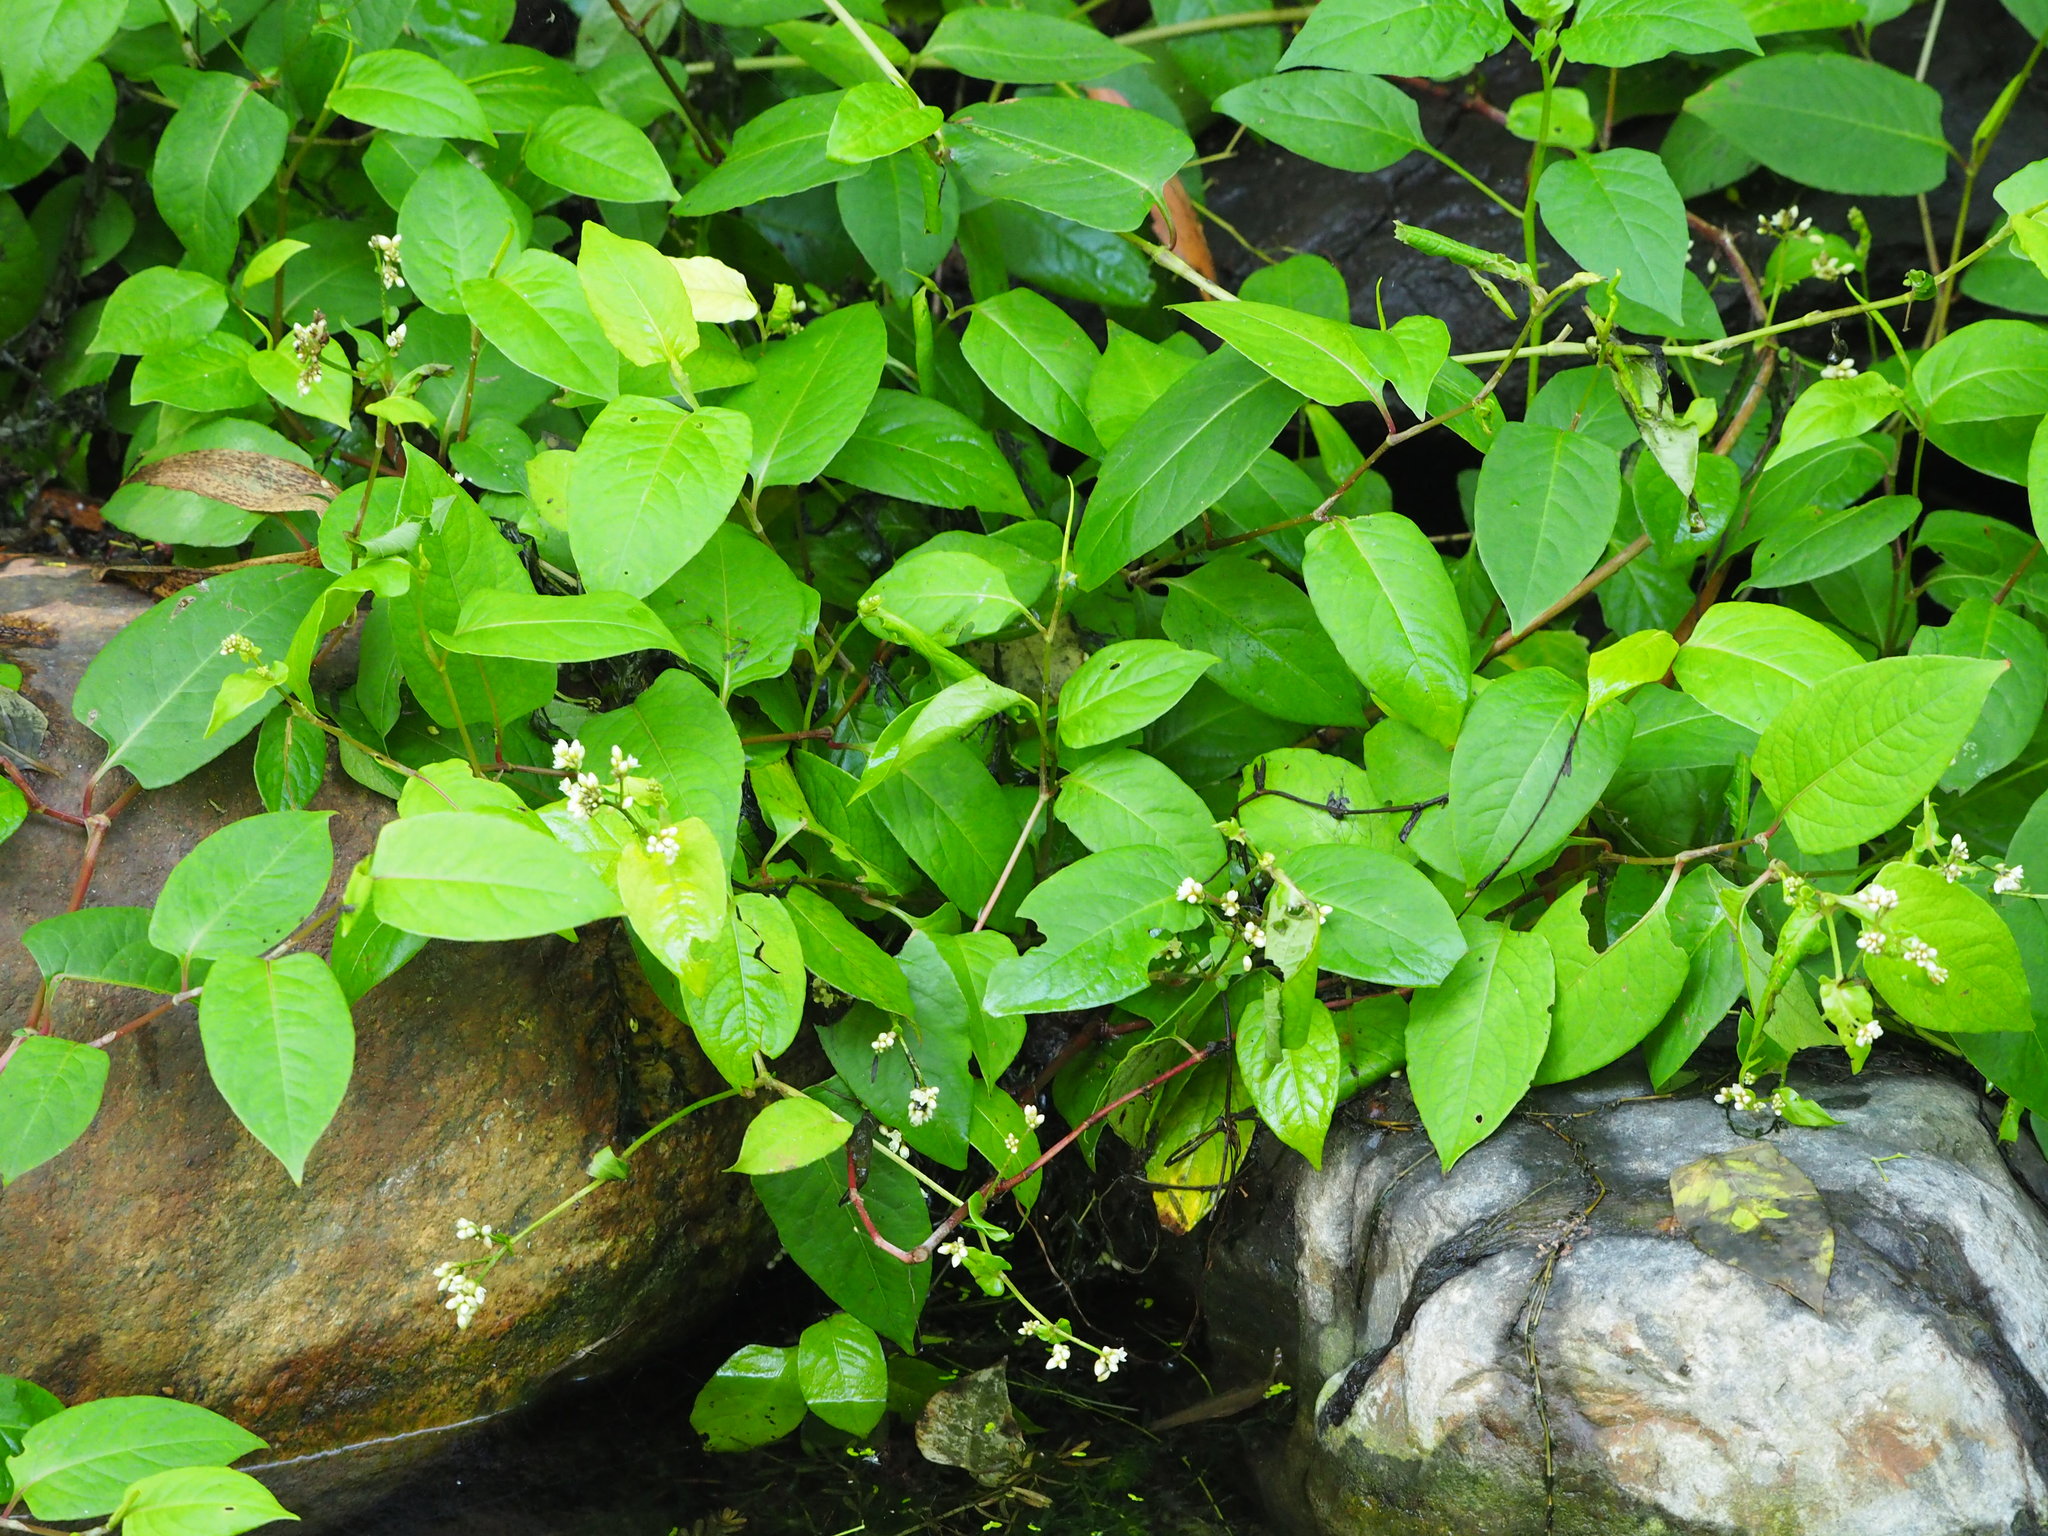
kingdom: Plantae
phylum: Tracheophyta
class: Magnoliopsida
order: Caryophyllales
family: Polygonaceae
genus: Persicaria
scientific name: Persicaria chinensis
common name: Chinese knotweed
